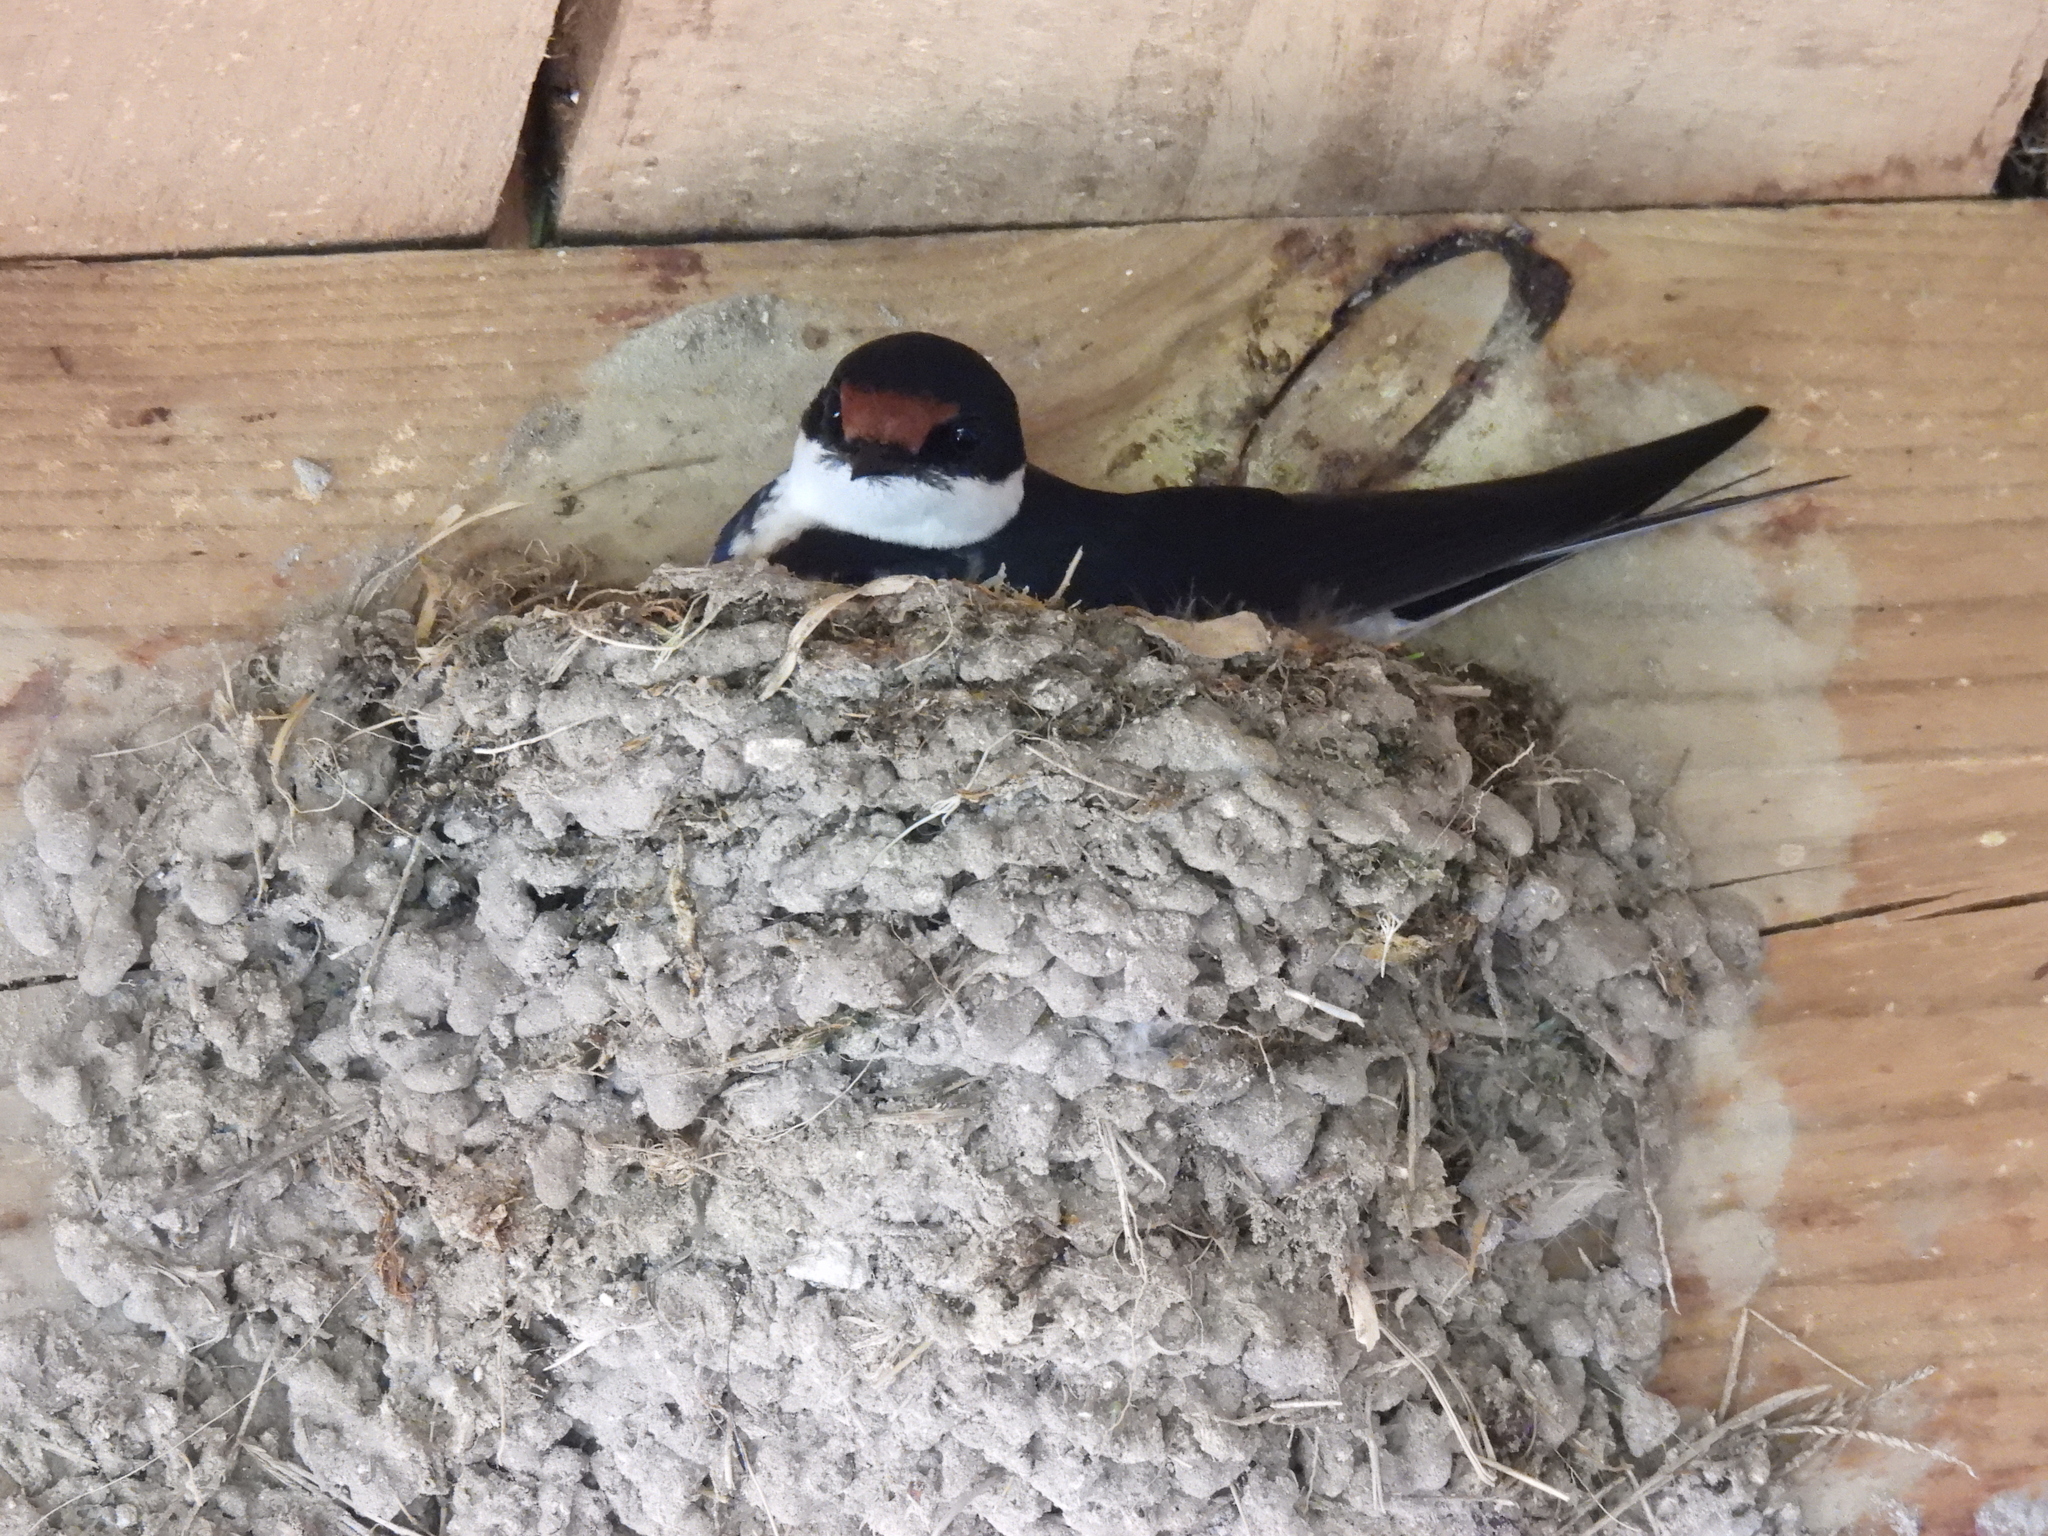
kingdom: Animalia
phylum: Chordata
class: Aves
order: Passeriformes
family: Hirundinidae
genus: Hirundo
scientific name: Hirundo albigularis
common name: White-throated swallow
